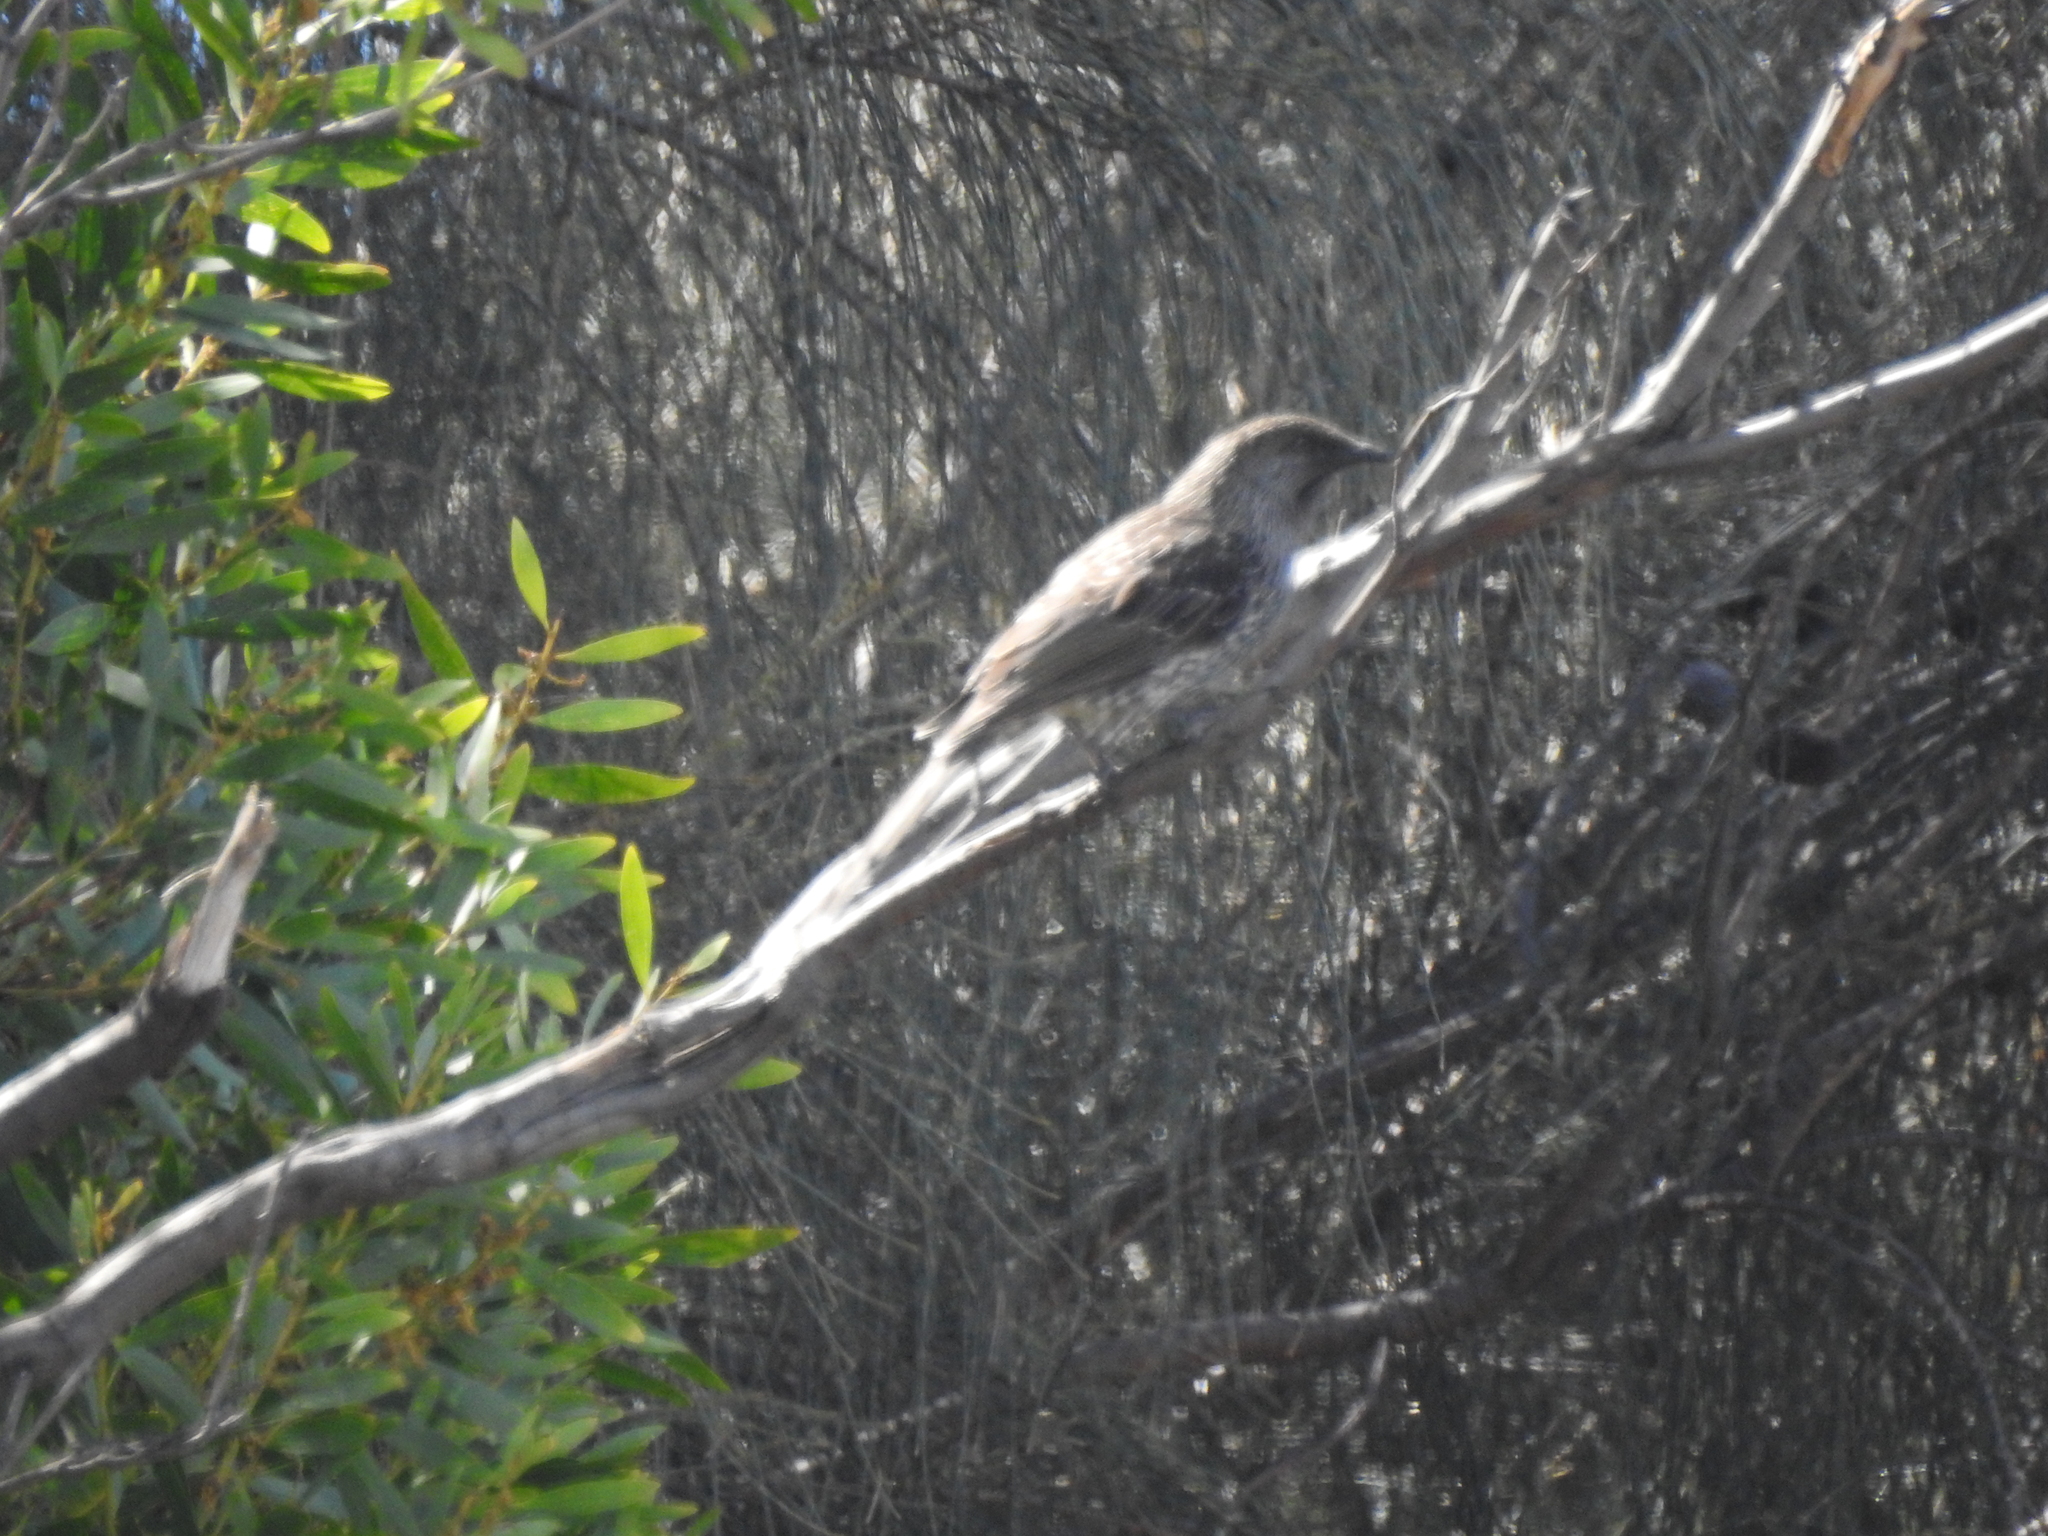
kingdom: Animalia
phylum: Chordata
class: Aves
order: Passeriformes
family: Meliphagidae
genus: Anthochaera
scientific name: Anthochaera chrysoptera
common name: Little wattlebird
